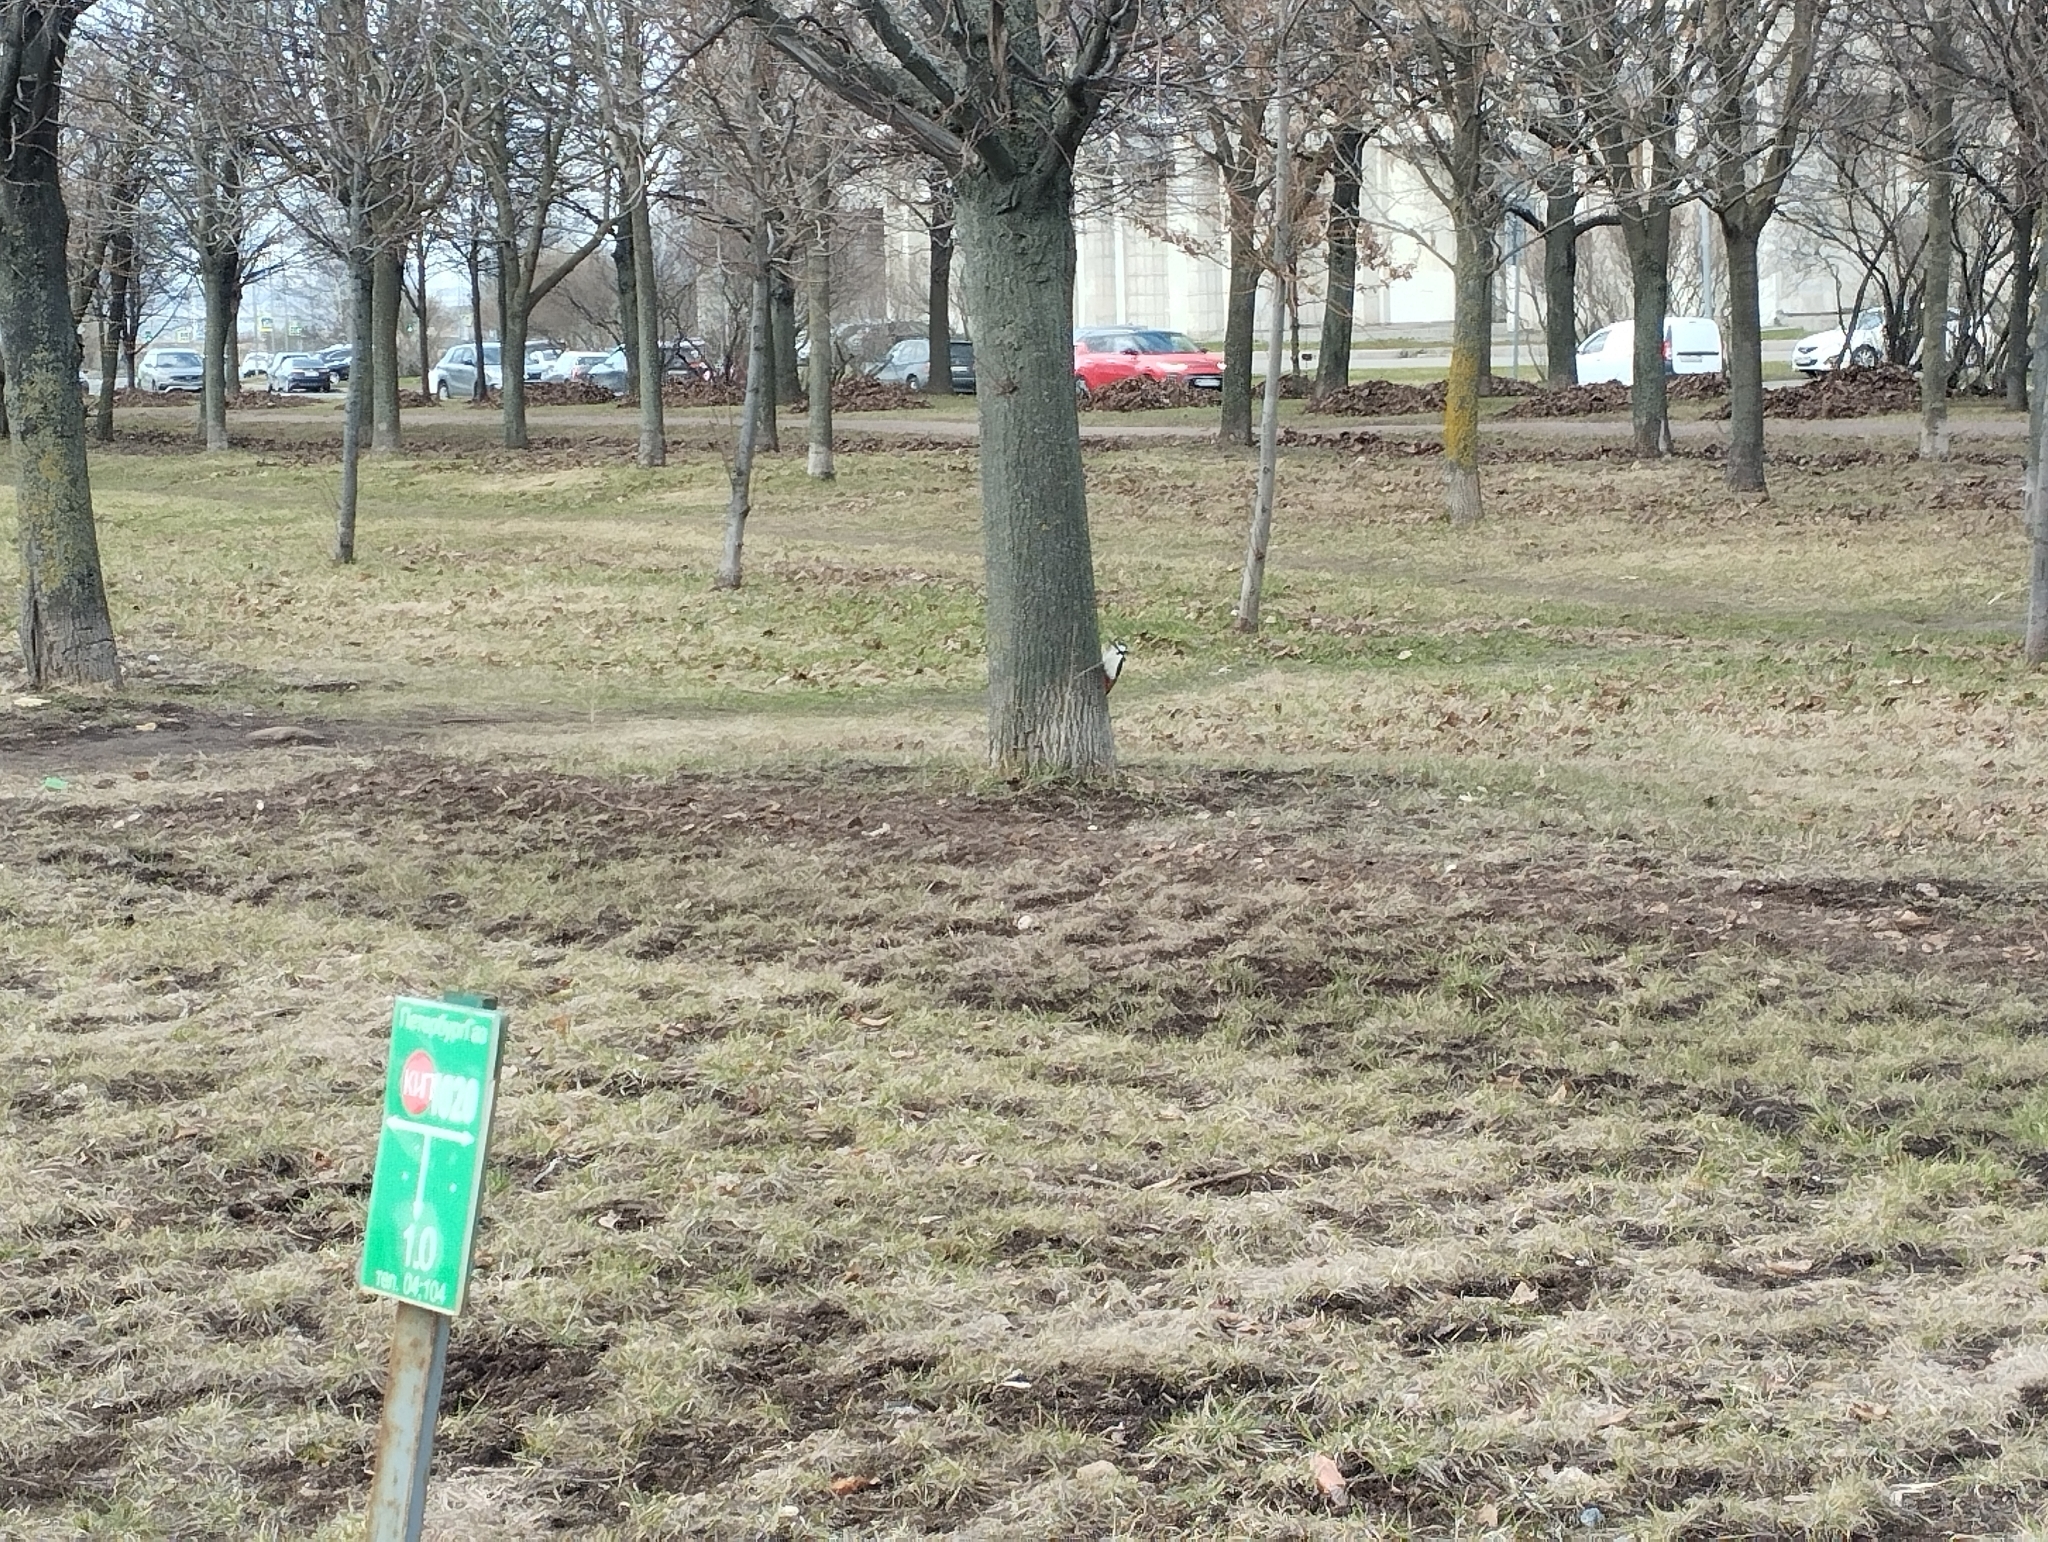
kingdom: Animalia
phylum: Chordata
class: Aves
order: Piciformes
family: Picidae
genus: Dendrocopos
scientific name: Dendrocopos major
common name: Great spotted woodpecker
